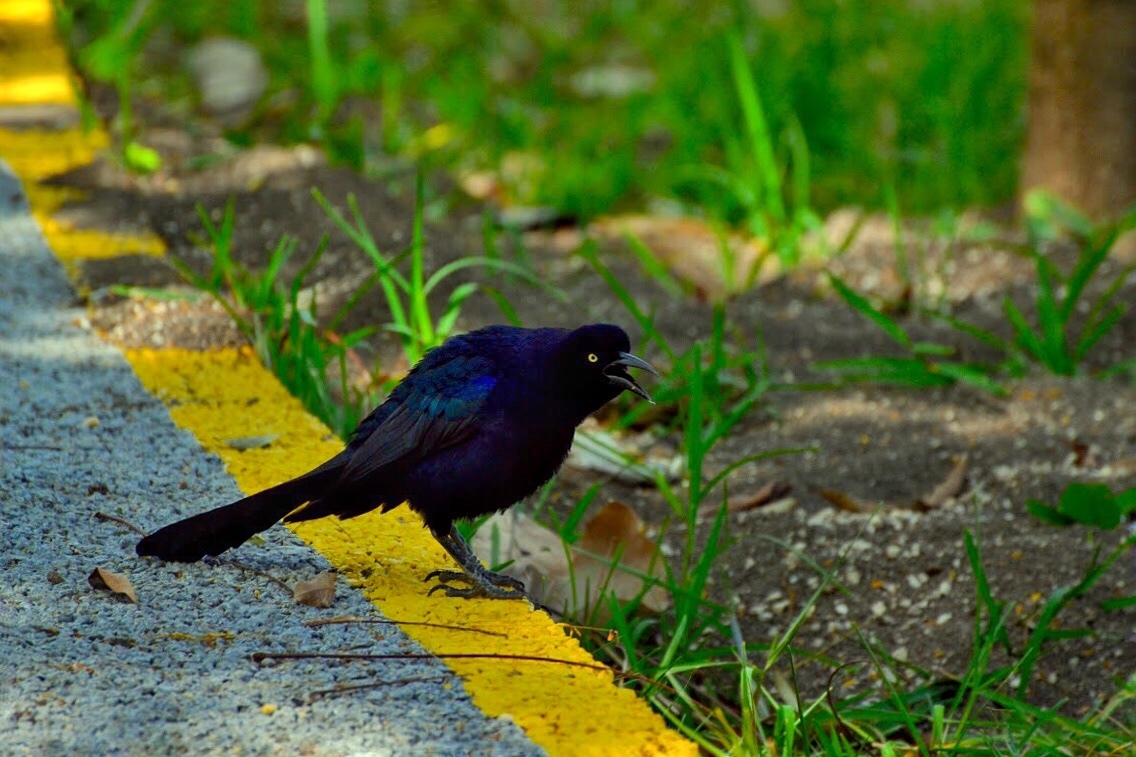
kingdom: Animalia
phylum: Chordata
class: Aves
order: Passeriformes
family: Icteridae
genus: Quiscalus
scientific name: Quiscalus mexicanus
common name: Great-tailed grackle
